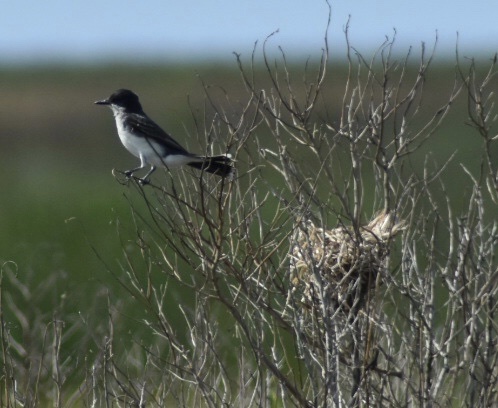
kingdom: Animalia
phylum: Chordata
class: Aves
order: Passeriformes
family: Tyrannidae
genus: Tyrannus
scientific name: Tyrannus tyrannus
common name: Eastern kingbird
